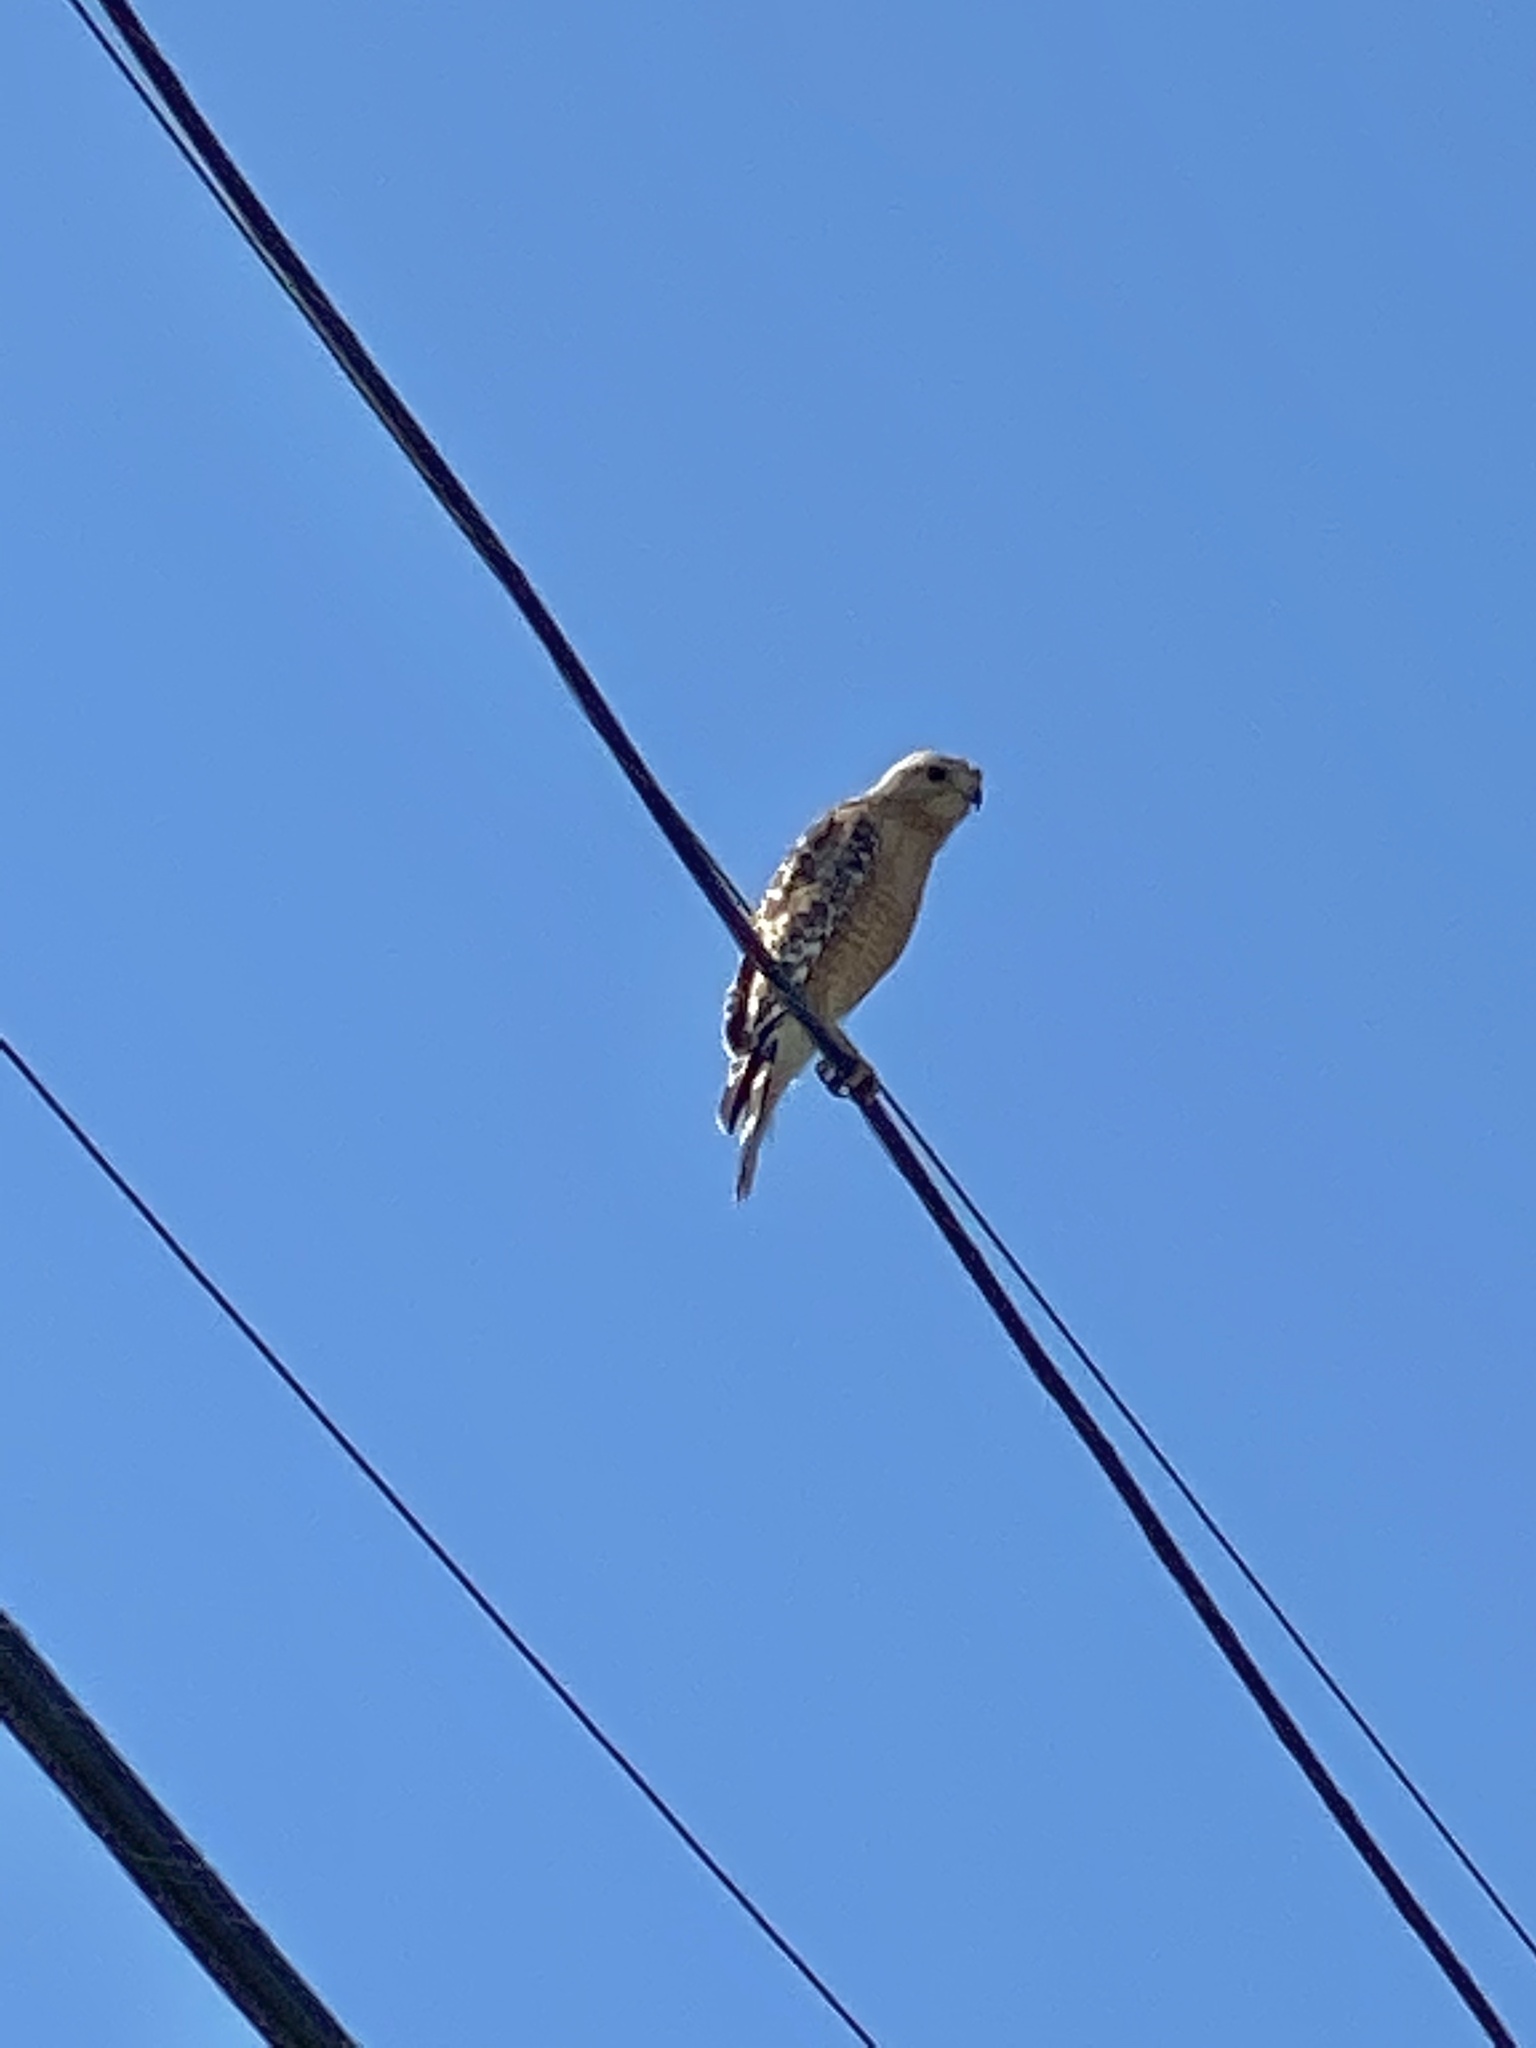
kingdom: Animalia
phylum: Chordata
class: Aves
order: Accipitriformes
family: Accipitridae
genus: Buteo
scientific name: Buteo lineatus
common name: Red-shouldered hawk
